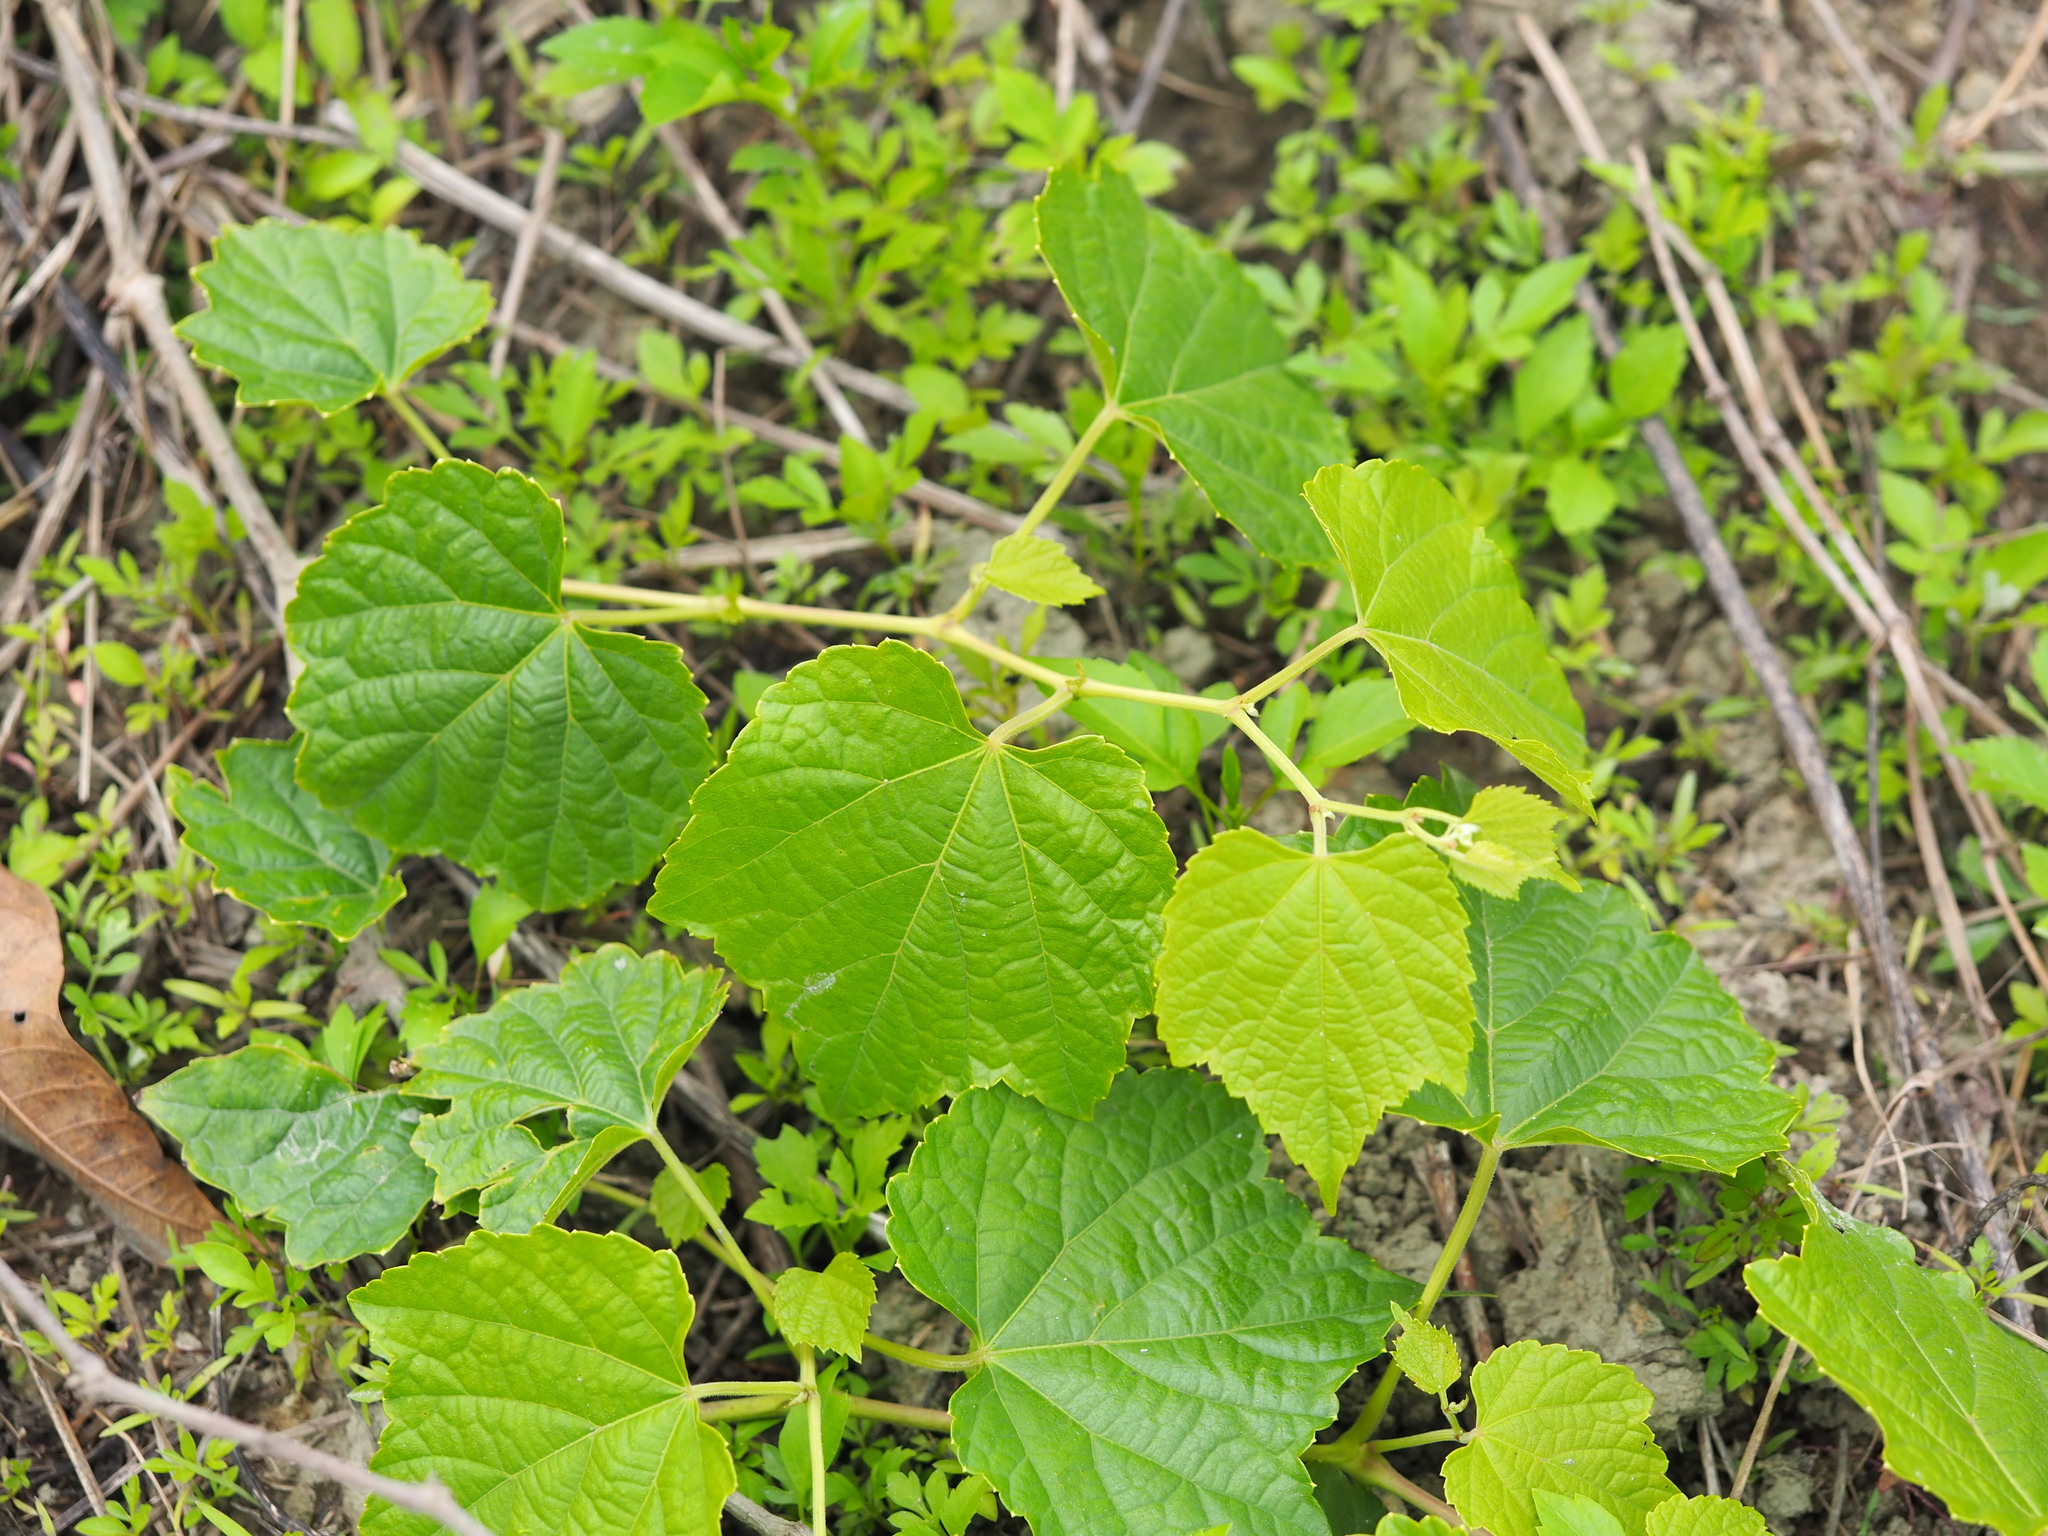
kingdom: Plantae
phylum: Tracheophyta
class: Magnoliopsida
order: Vitales
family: Vitaceae
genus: Ampelopsis
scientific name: Ampelopsis glandulosa
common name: Amur peppervine
